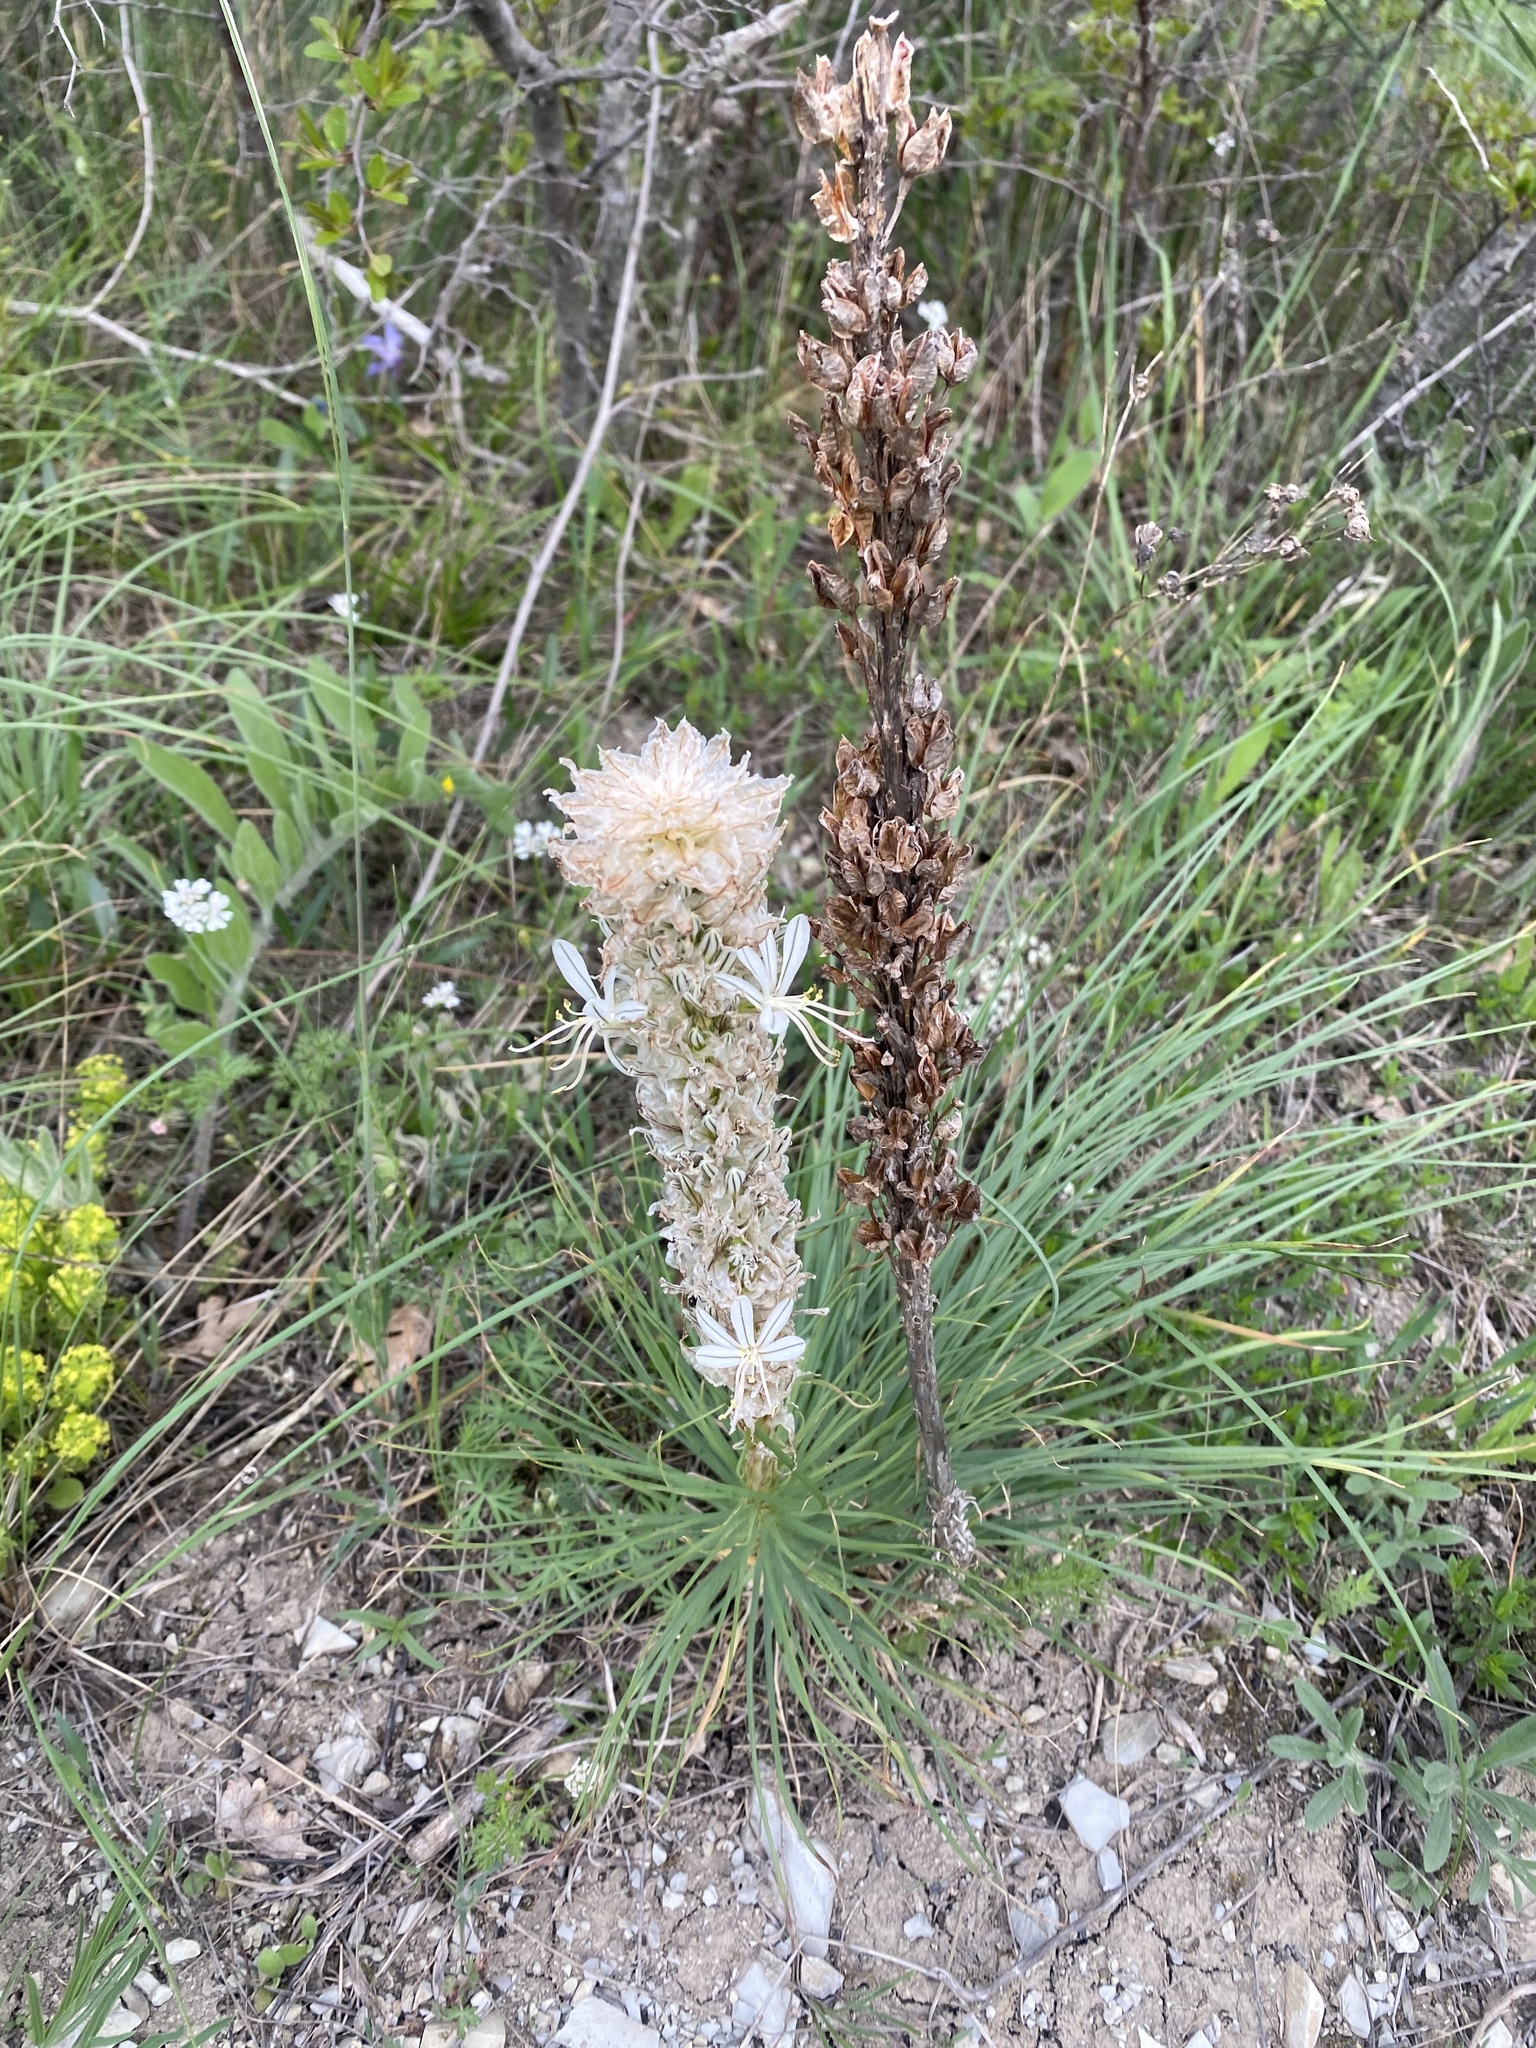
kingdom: Plantae
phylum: Tracheophyta
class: Liliopsida
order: Asparagales
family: Asphodelaceae
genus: Asphodeline
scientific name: Asphodeline taurica
